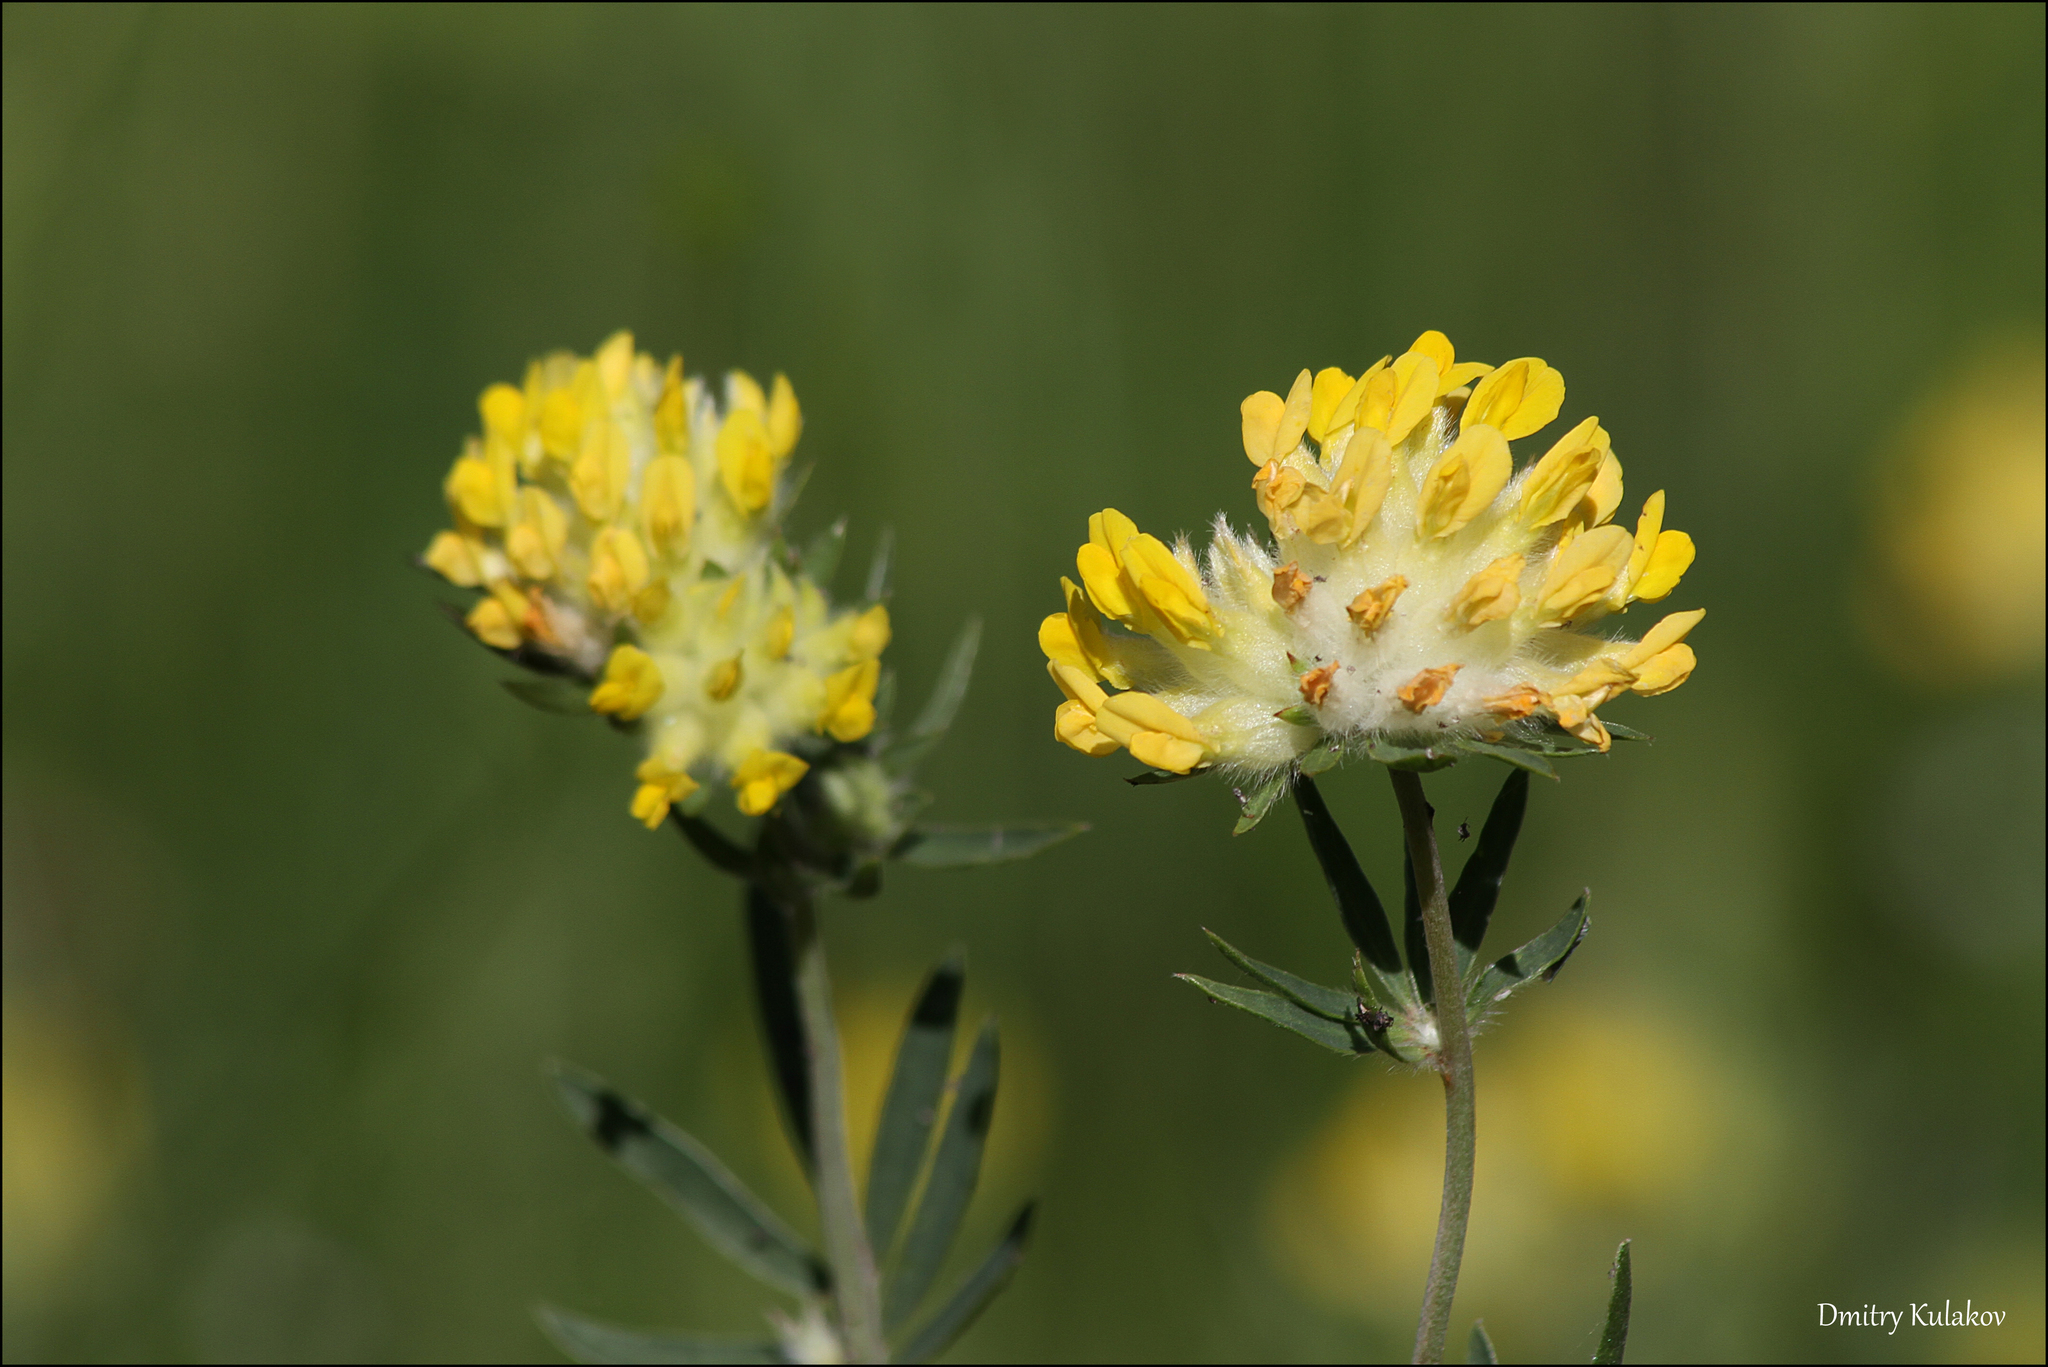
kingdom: Plantae
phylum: Tracheophyta
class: Magnoliopsida
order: Fabales
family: Fabaceae
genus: Anthyllis
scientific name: Anthyllis vulneraria
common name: Kidney vetch
